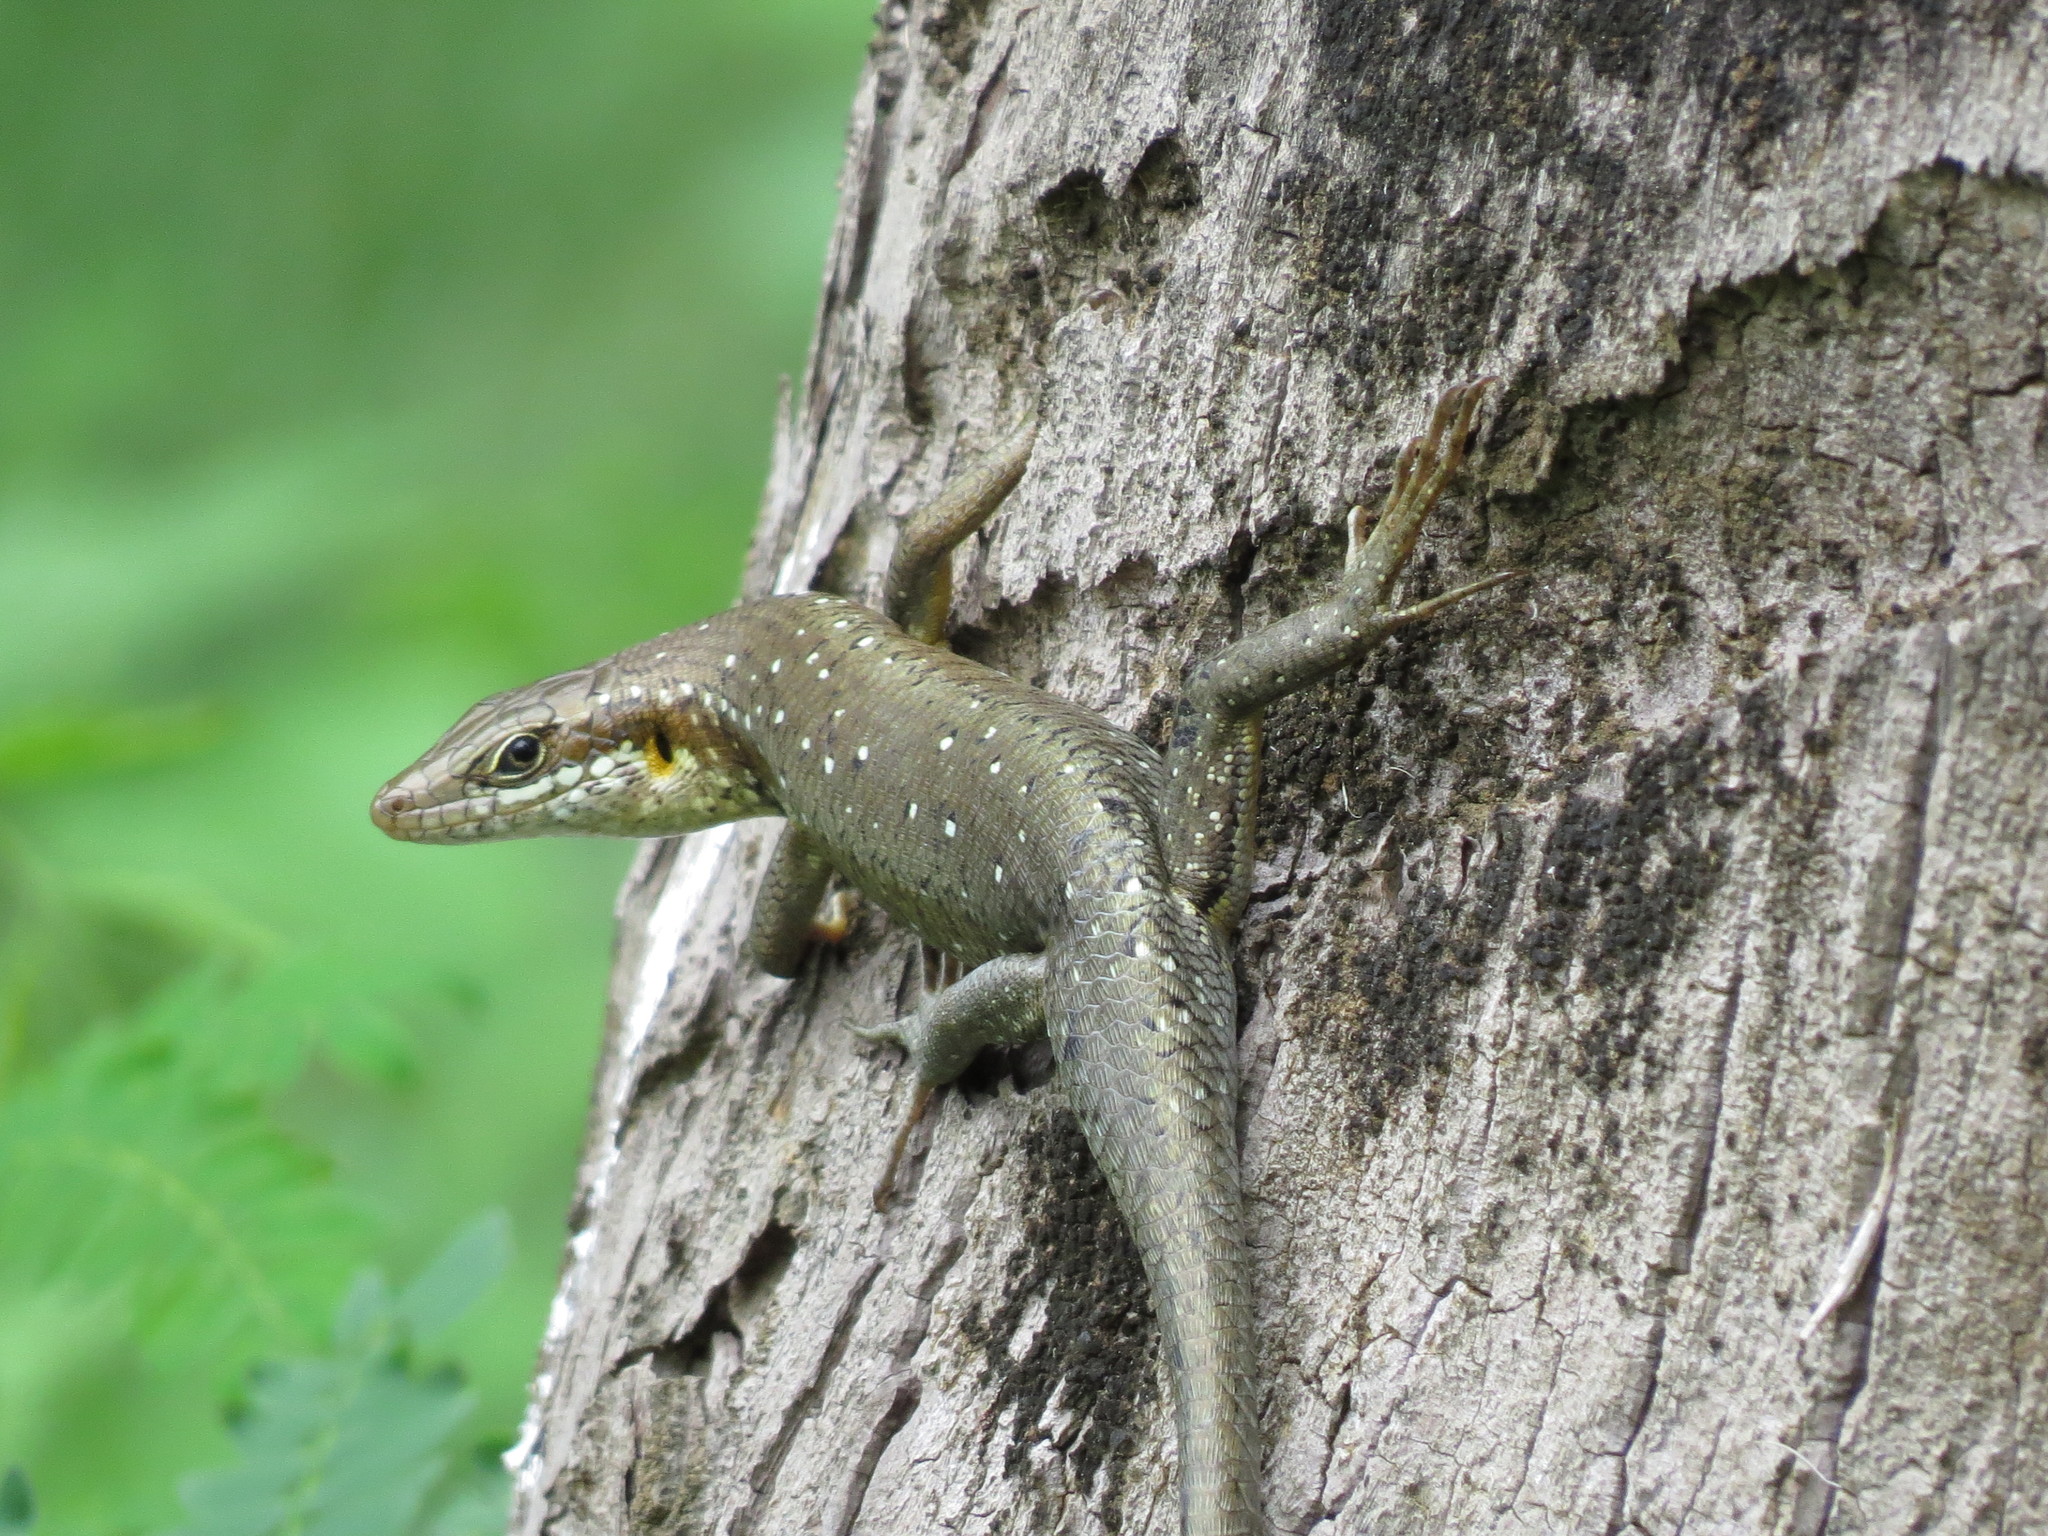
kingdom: Animalia
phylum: Chordata
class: Squamata
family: Scincidae
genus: Trachylepis
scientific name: Trachylepis thomensis
